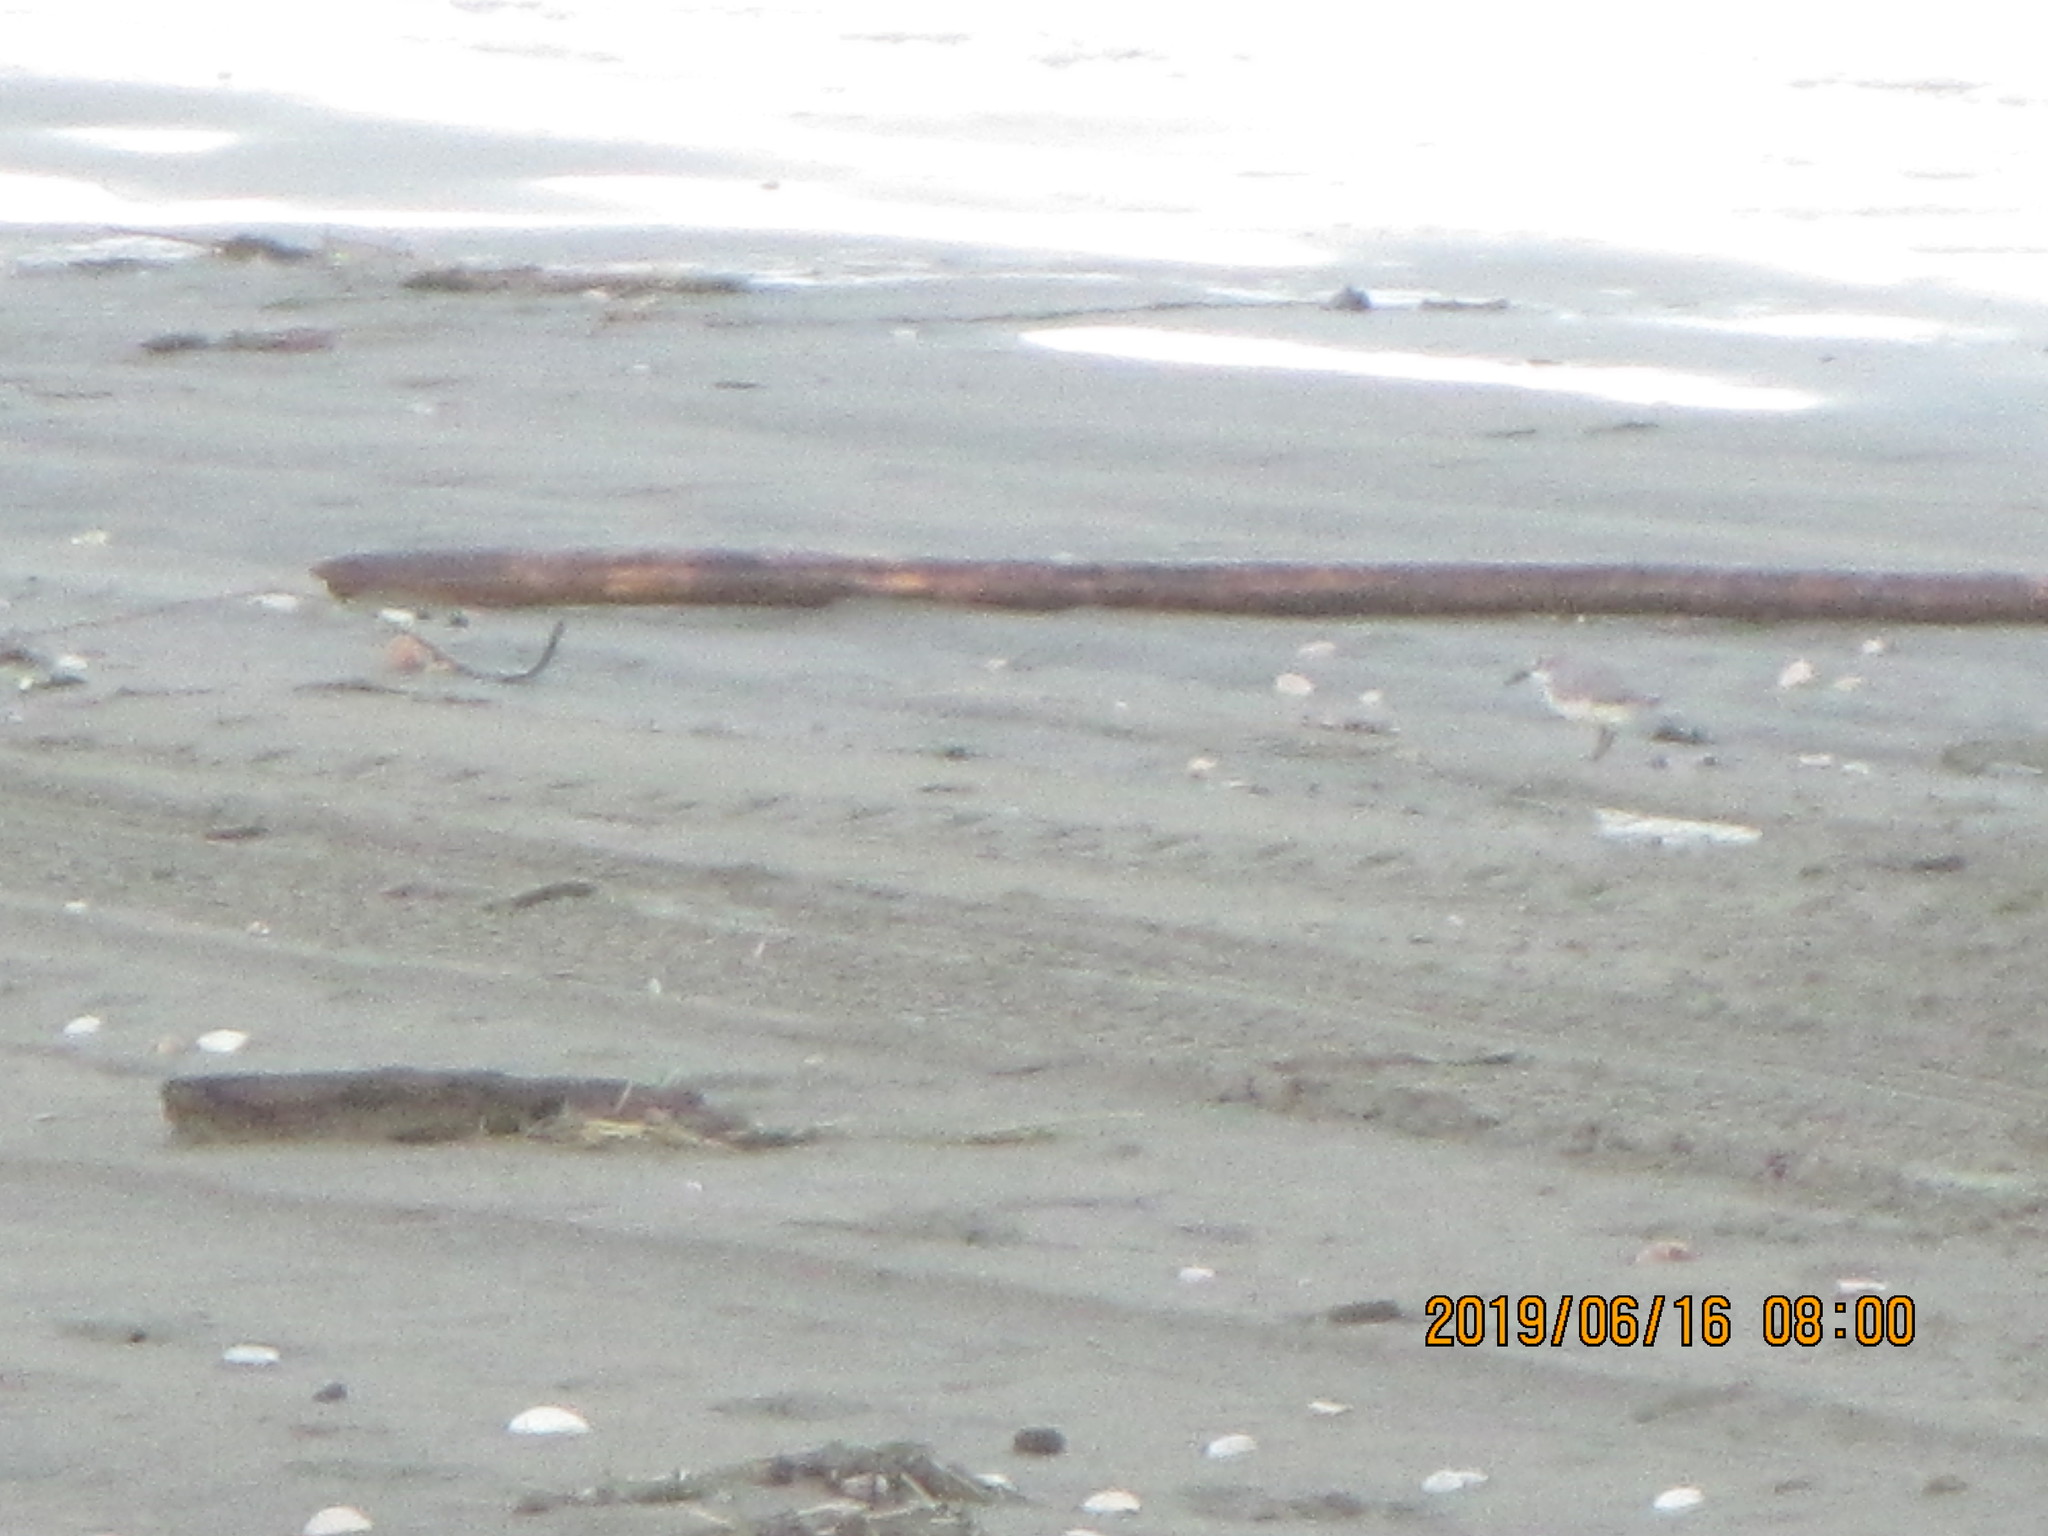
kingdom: Animalia
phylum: Chordata
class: Aves
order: Charadriiformes
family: Charadriidae
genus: Anarhynchus
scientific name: Anarhynchus frontalis
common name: Wrybill
